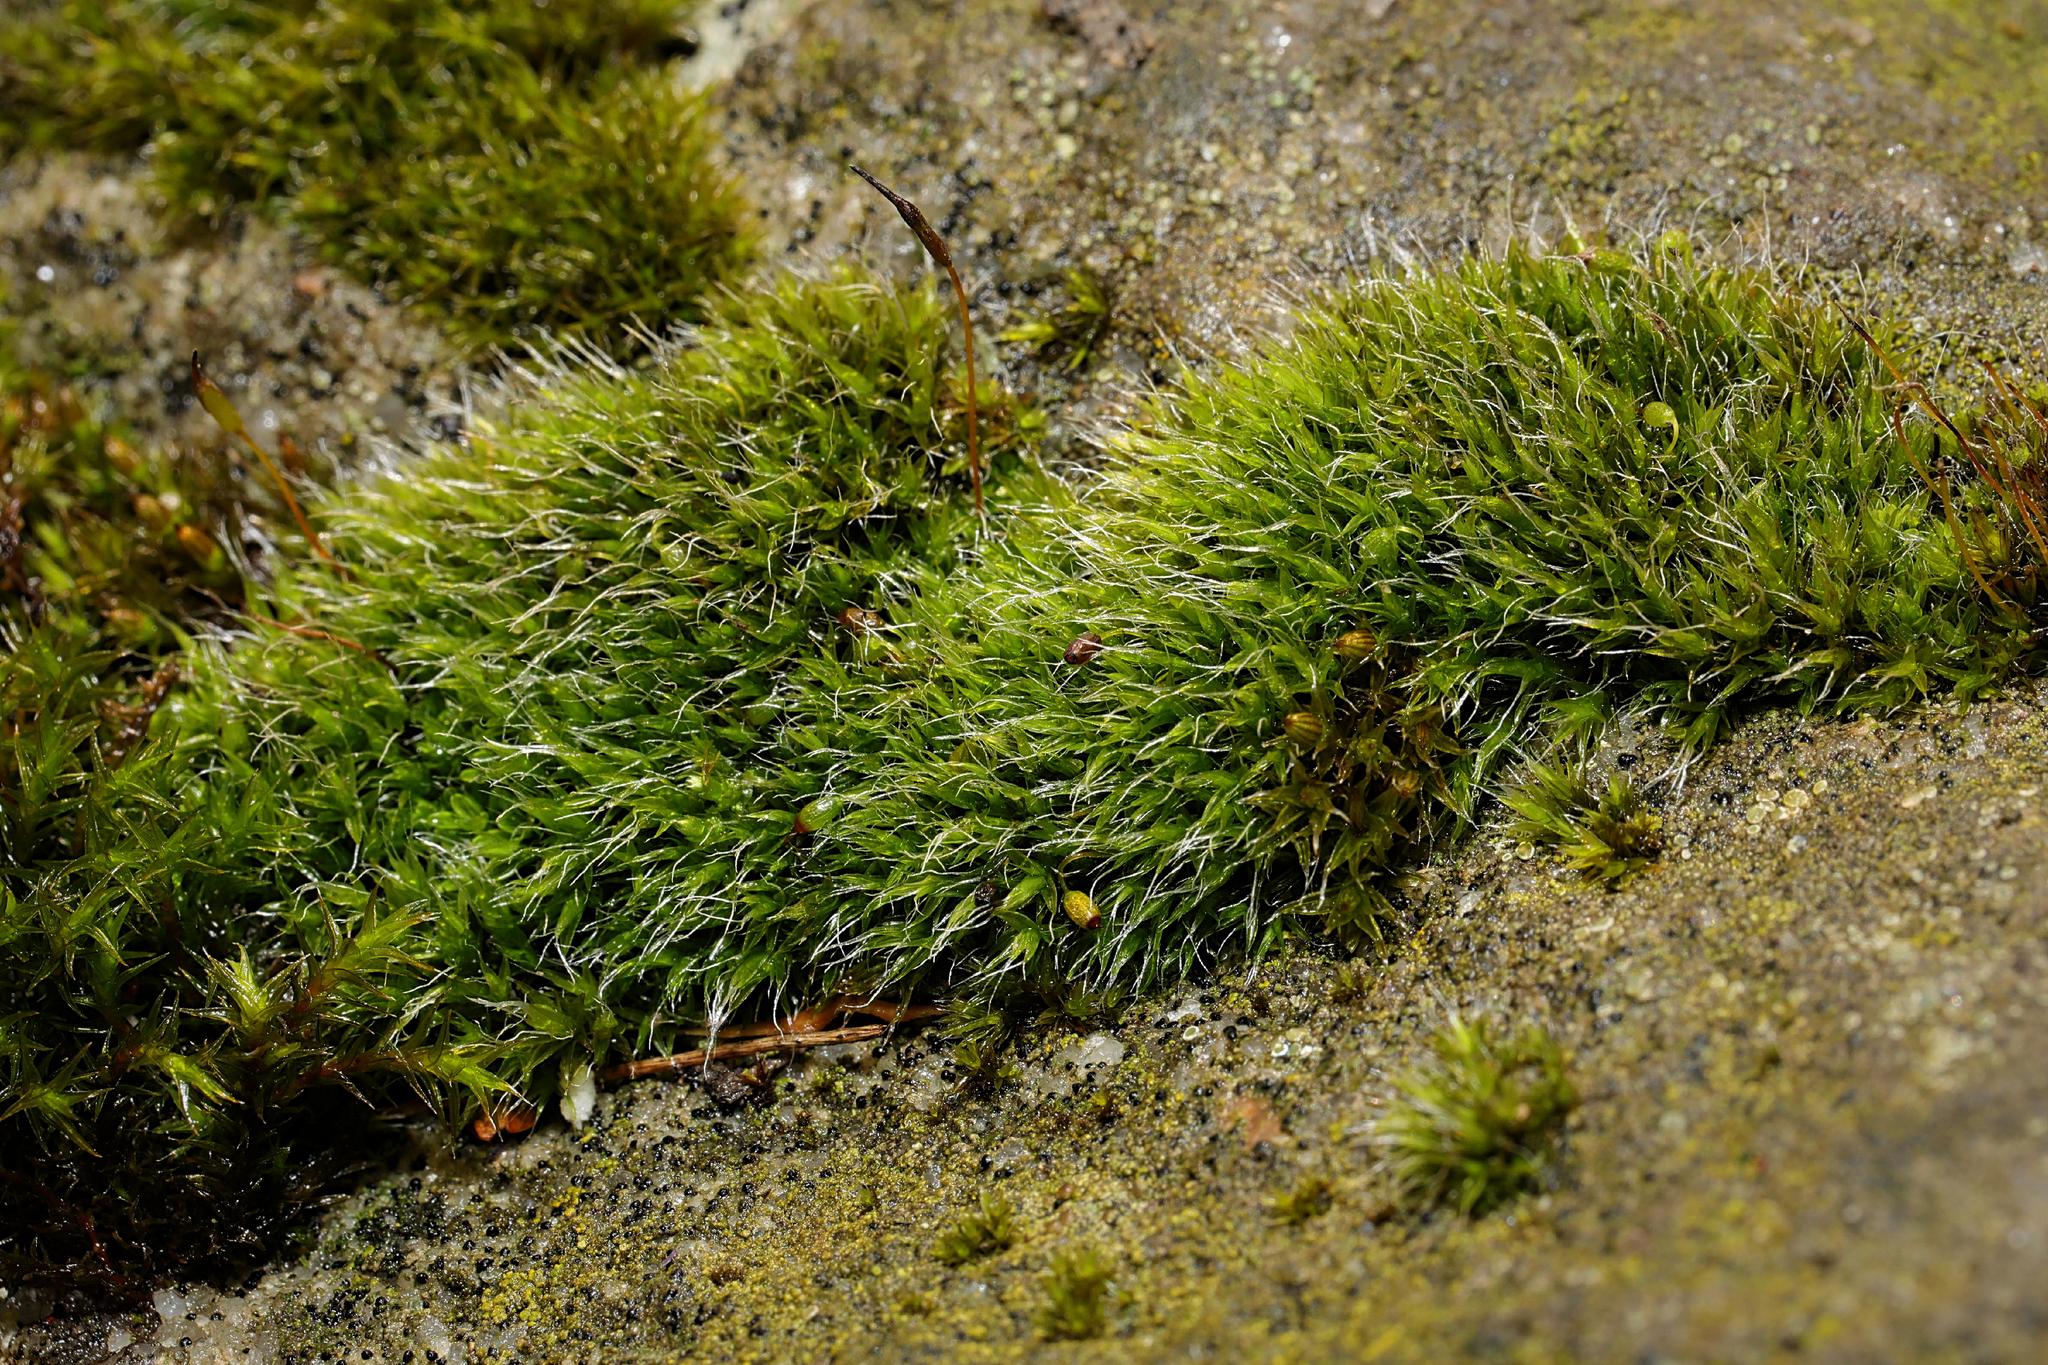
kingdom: Plantae
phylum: Bryophyta
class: Bryopsida
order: Grimmiales
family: Grimmiaceae
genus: Grimmia
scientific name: Grimmia pulvinata
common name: Grey-cushioned grimmia
